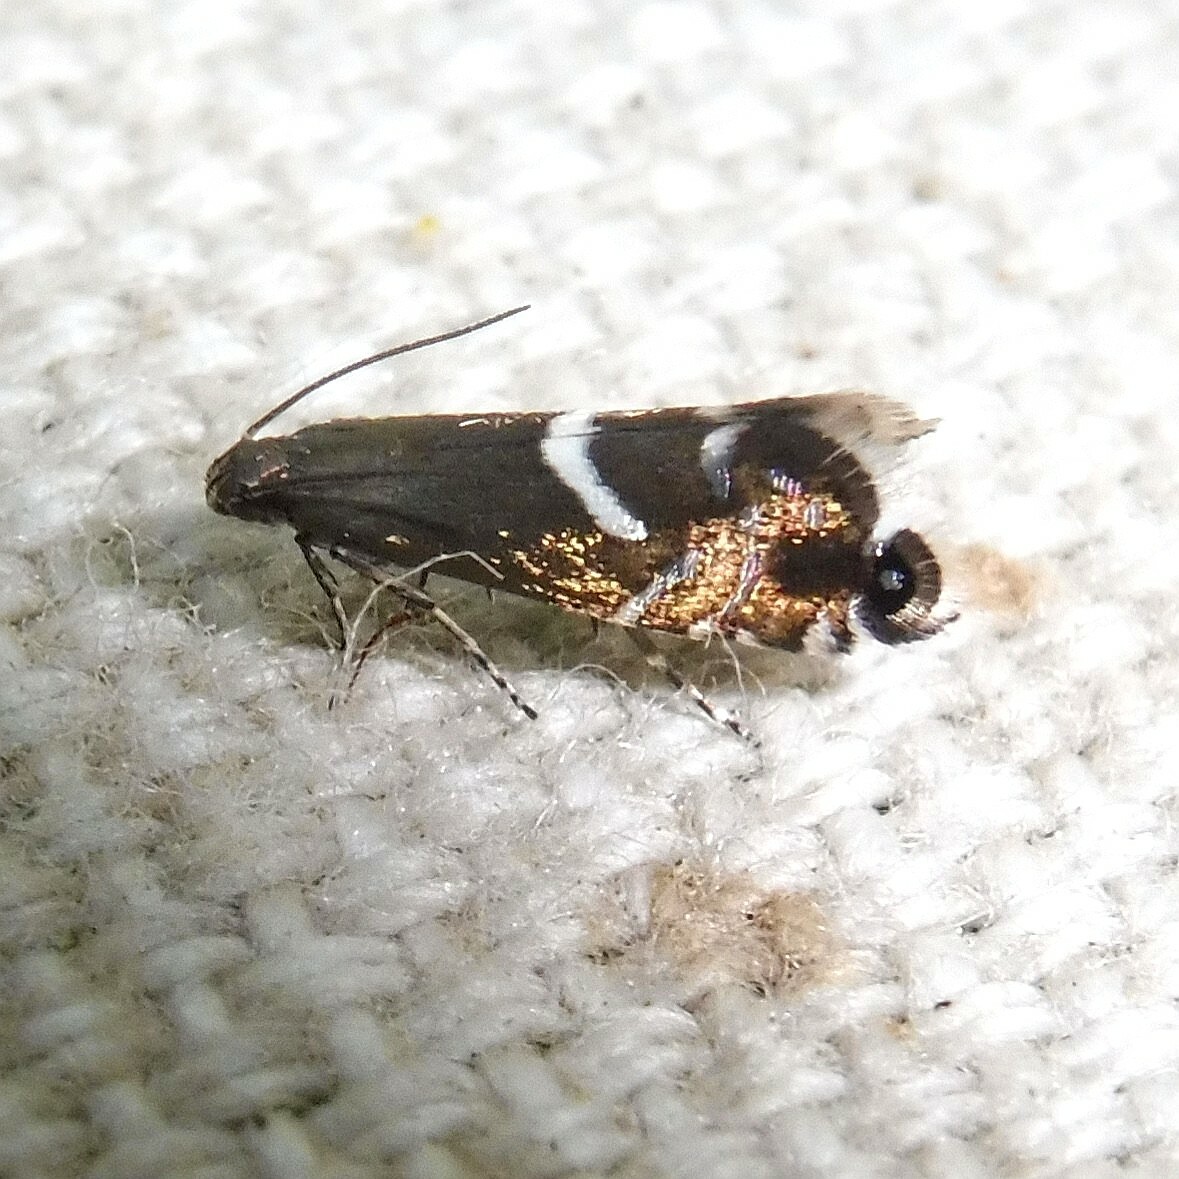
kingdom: Animalia
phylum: Arthropoda
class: Insecta
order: Lepidoptera
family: Glyphipterigidae
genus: Glyphipterix
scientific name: Glyphipterix forsterella
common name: Sedge fanner
